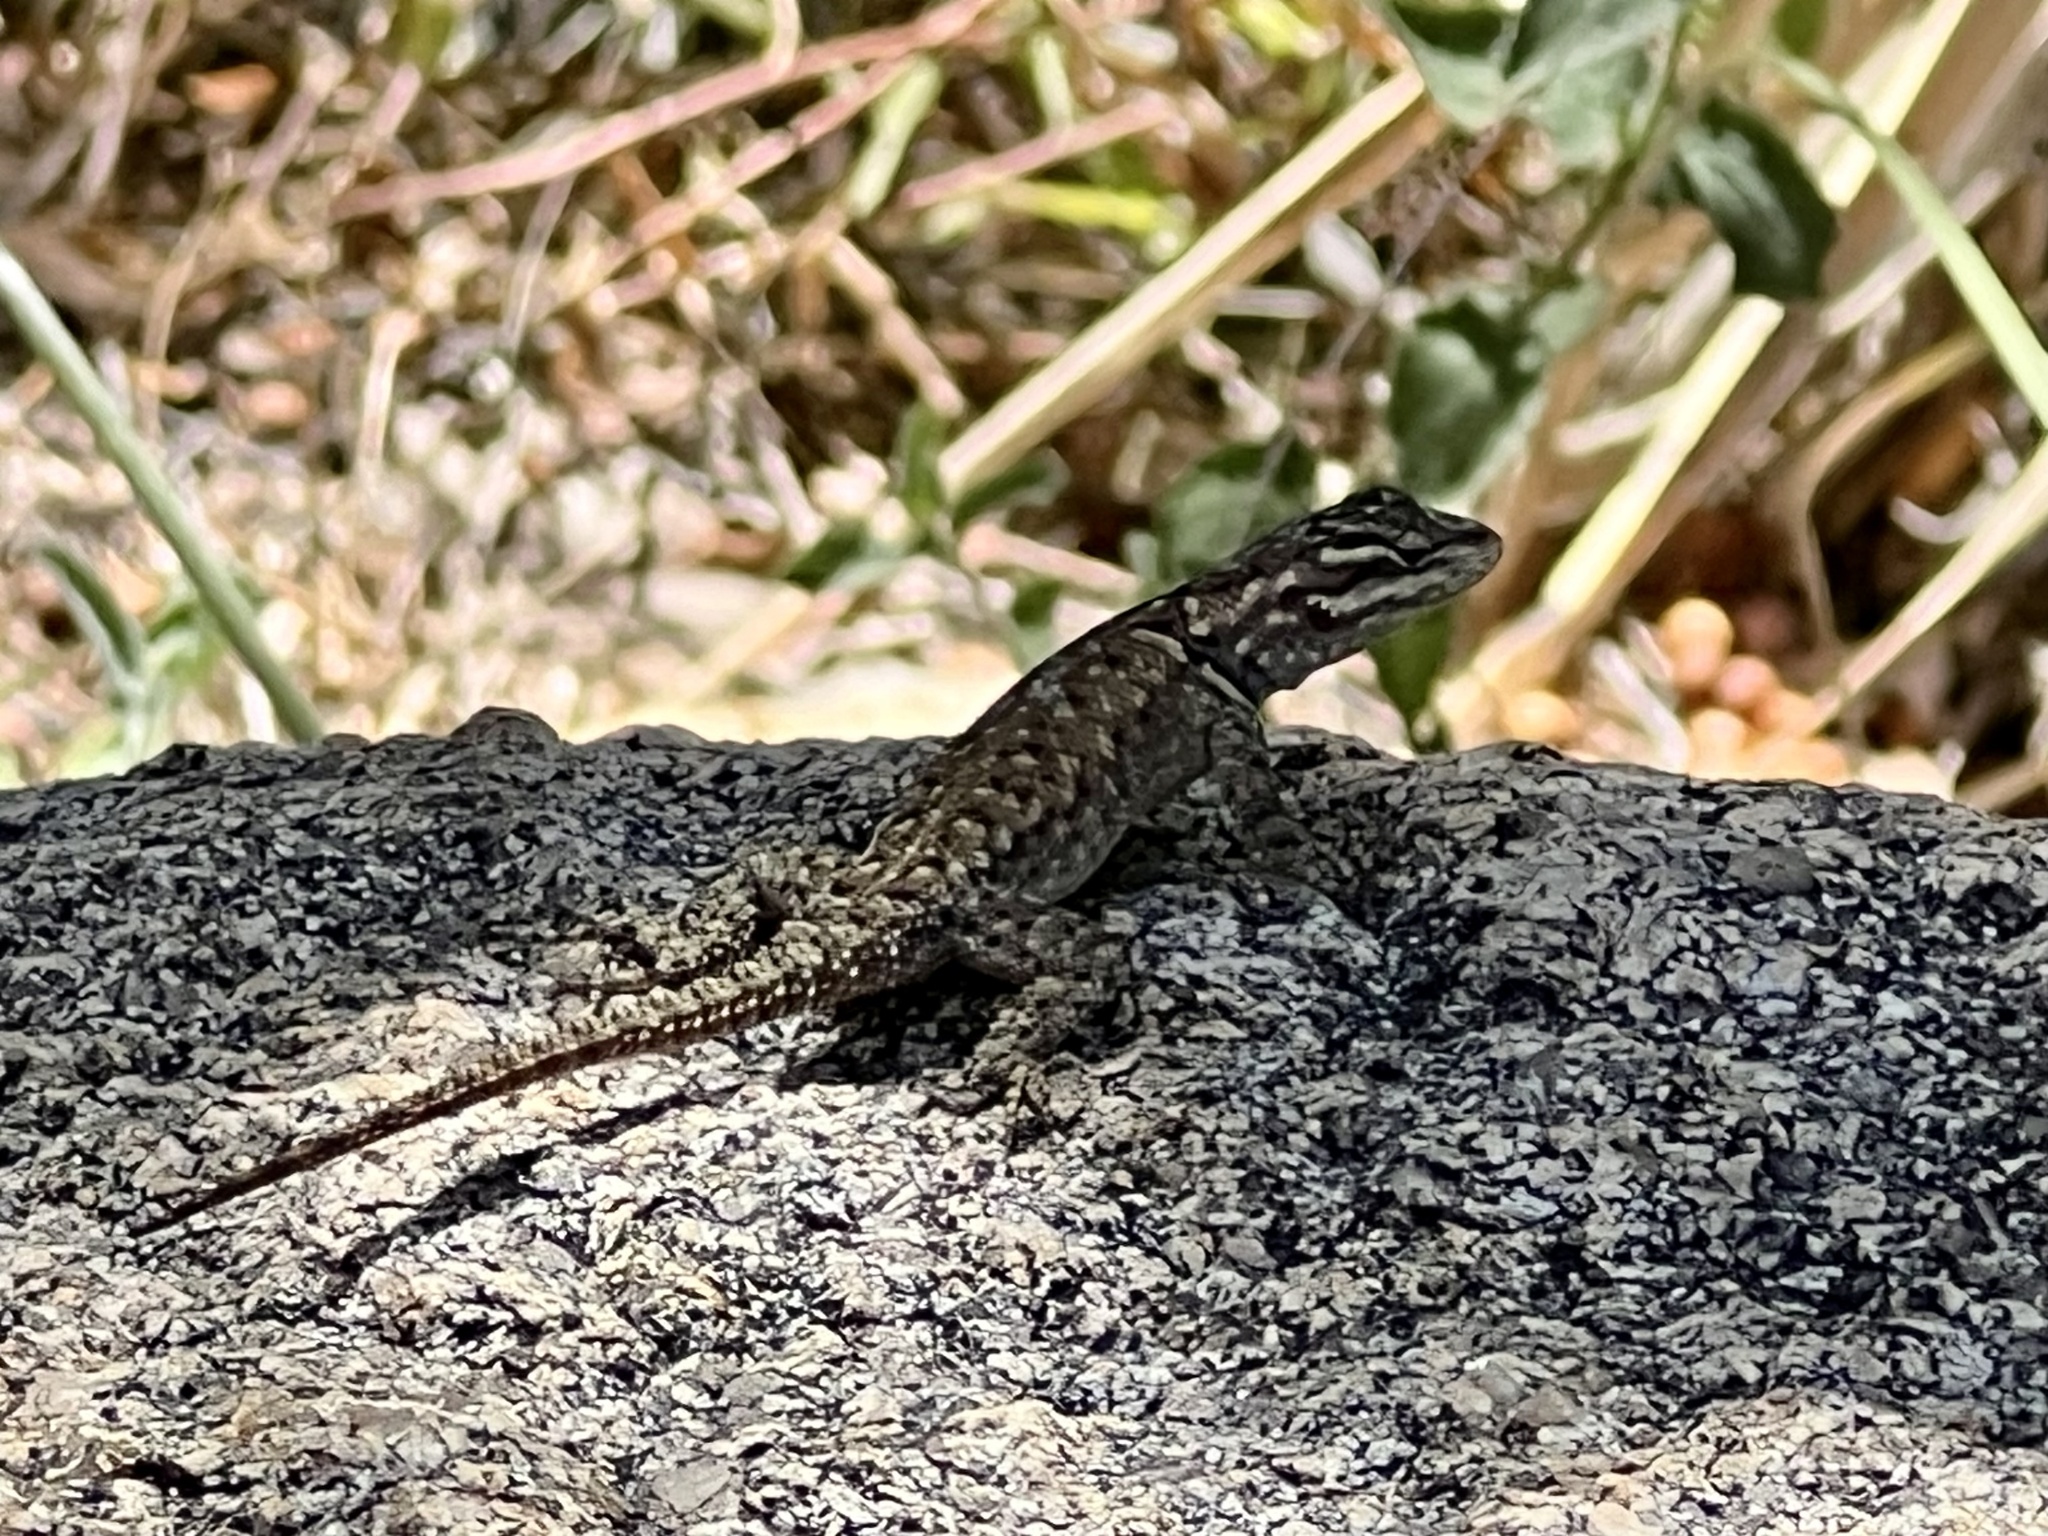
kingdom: Animalia
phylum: Chordata
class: Squamata
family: Phrynosomatidae
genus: Sceloporus
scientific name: Sceloporus jarrovii
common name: Yarrow's spiny lizard
